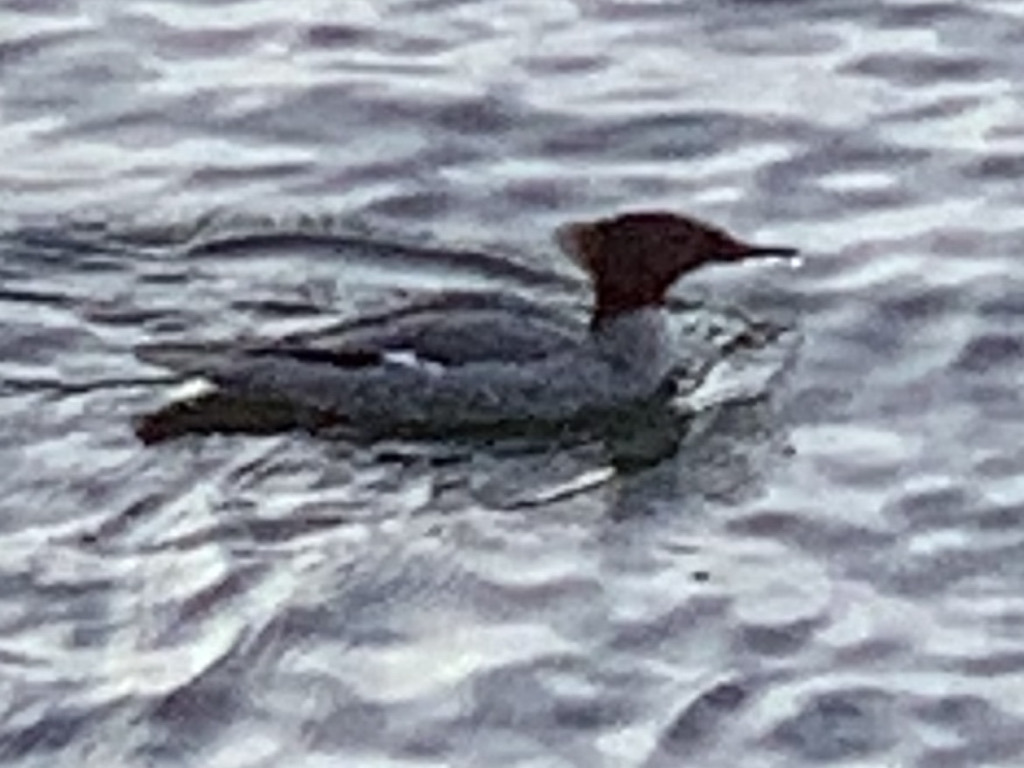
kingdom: Animalia
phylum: Chordata
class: Aves
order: Anseriformes
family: Anatidae
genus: Mergus
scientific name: Mergus merganser
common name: Common merganser
